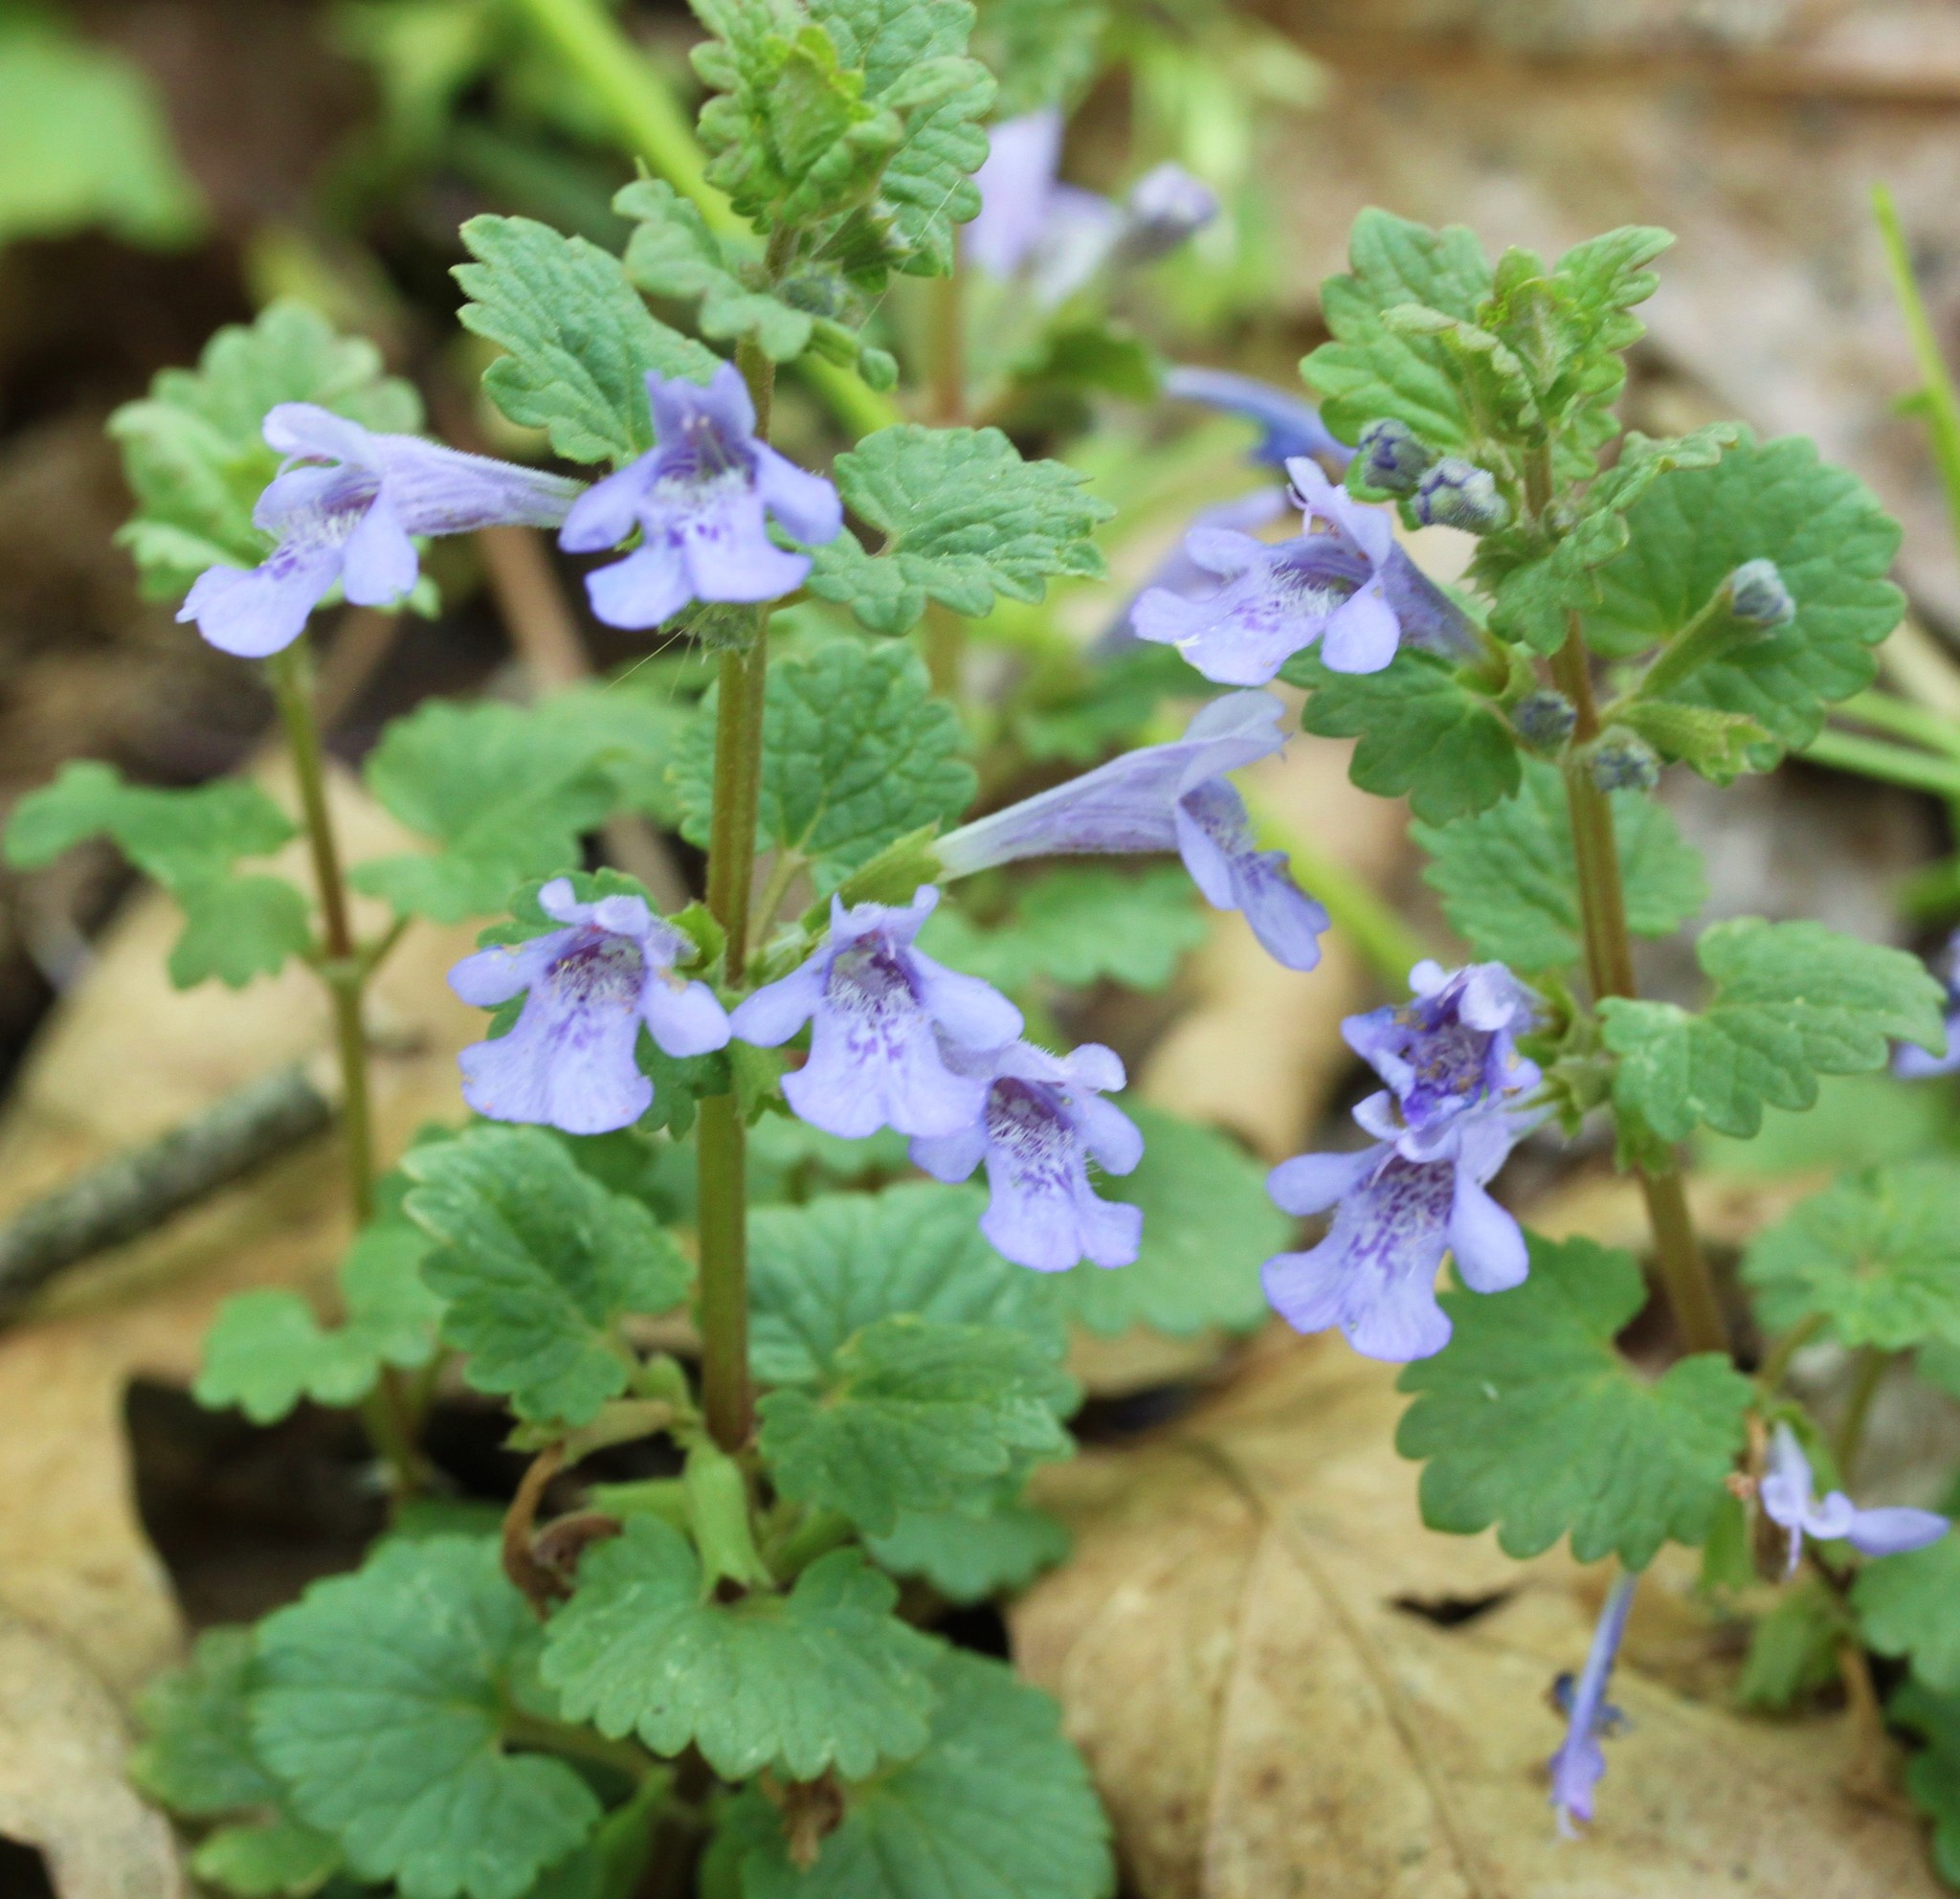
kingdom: Plantae
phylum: Tracheophyta
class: Magnoliopsida
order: Lamiales
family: Lamiaceae
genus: Glechoma
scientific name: Glechoma hederacea
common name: Ground ivy
